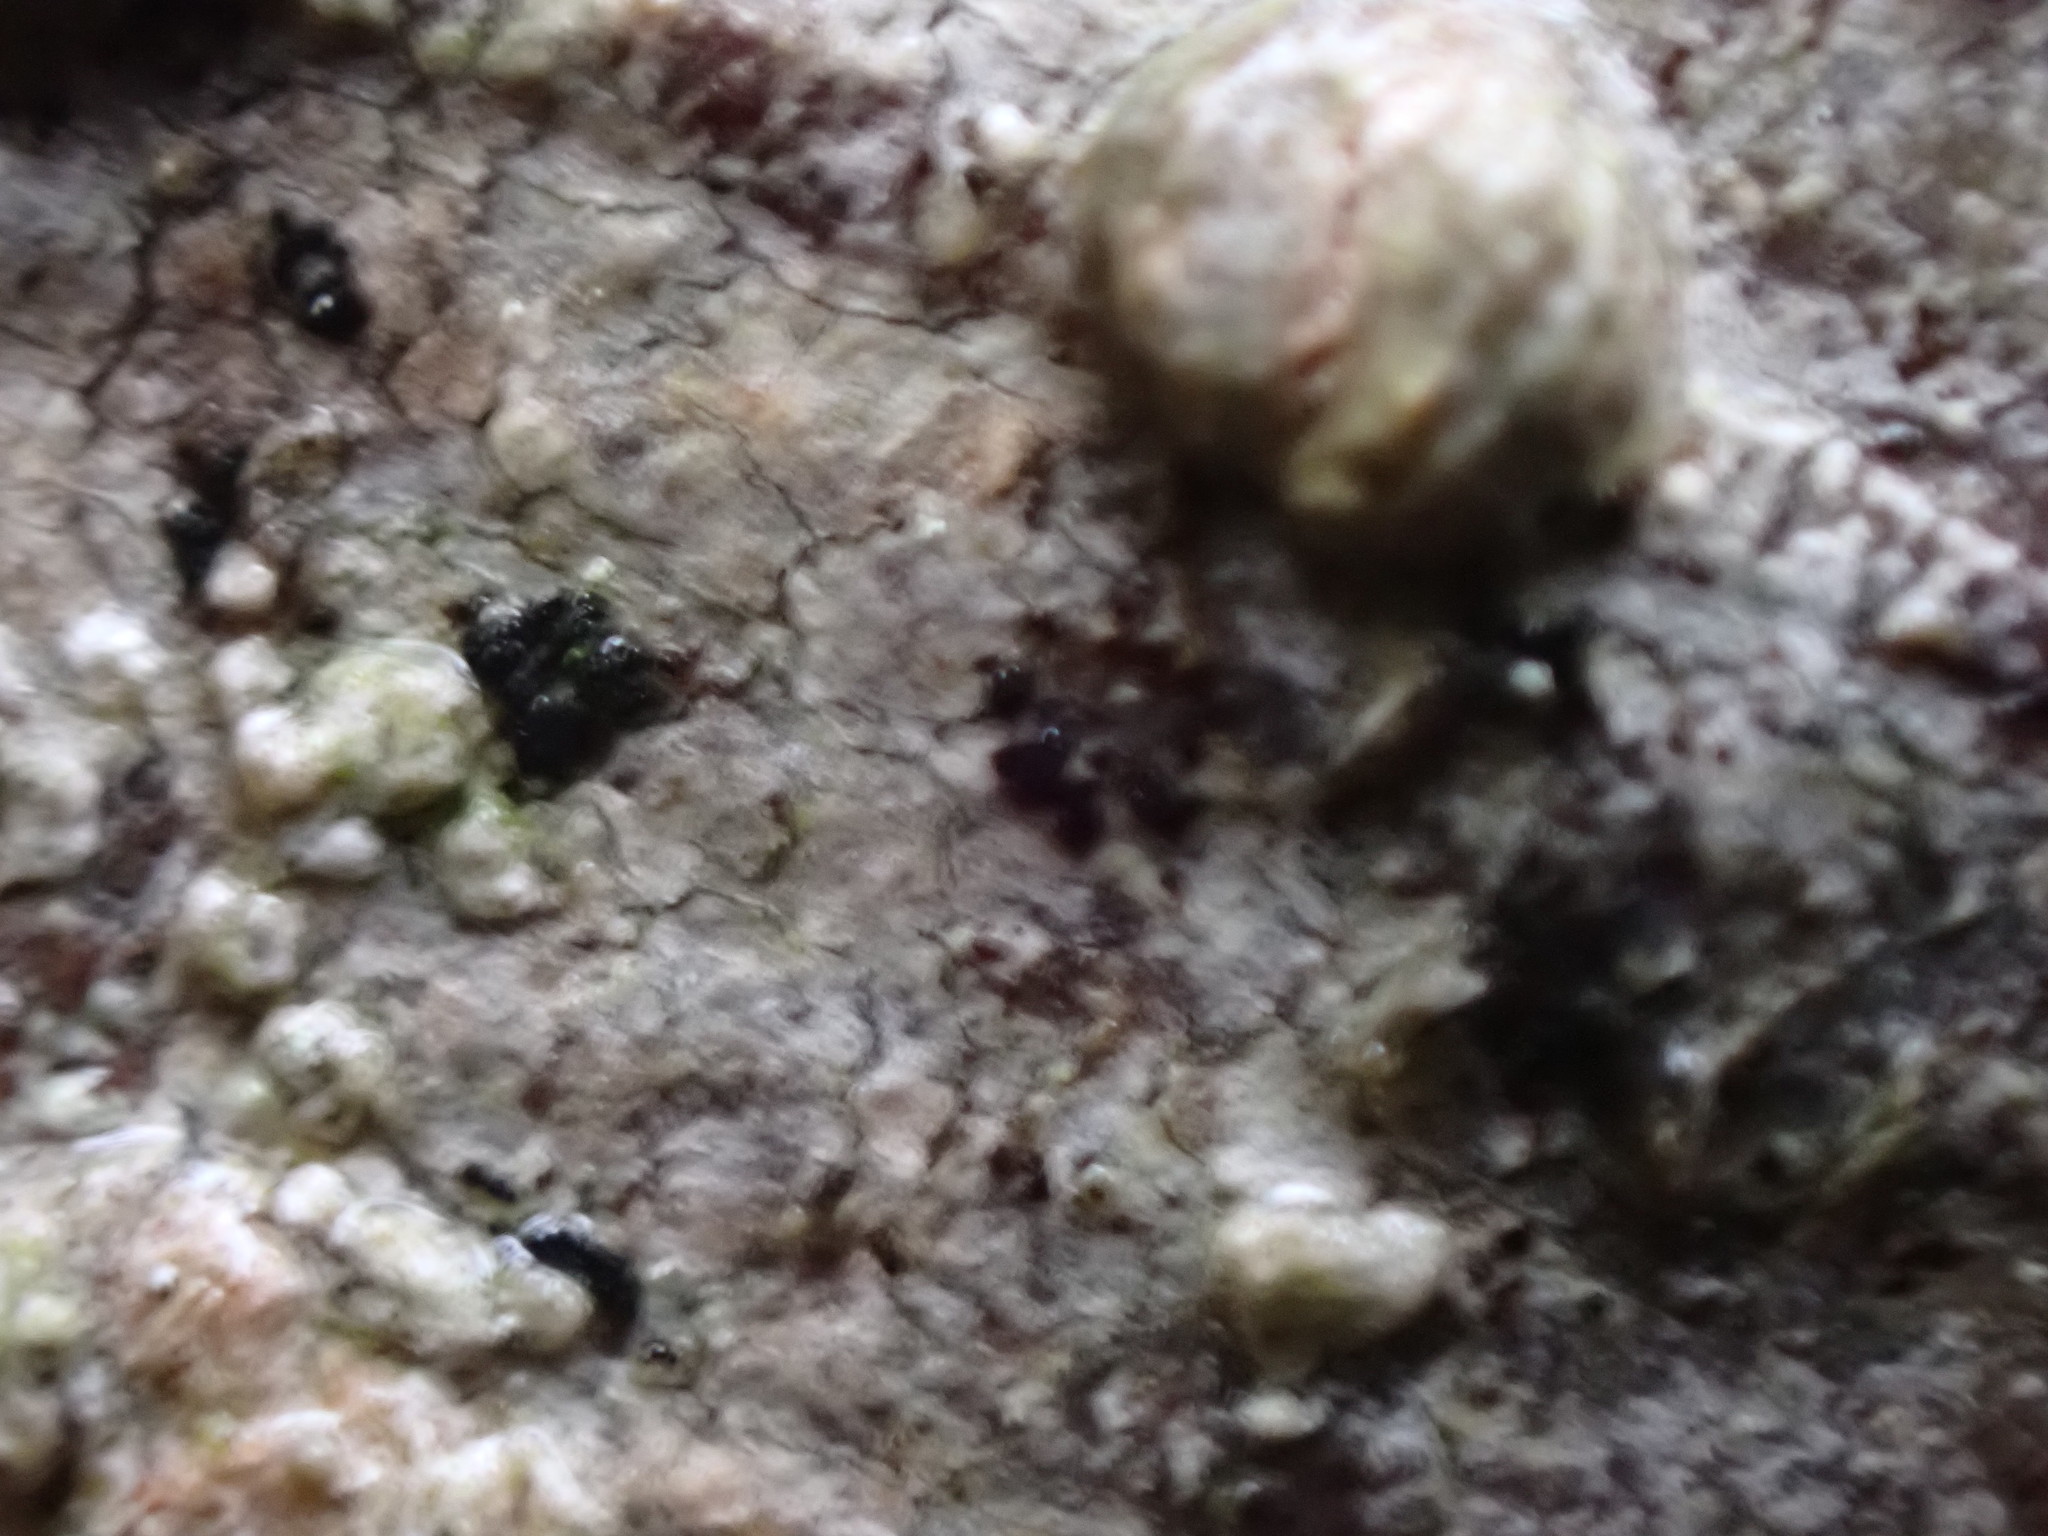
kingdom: Fungi
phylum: Ascomycota
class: Arthoniomycetes
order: Arthoniales
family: Arthoniaceae
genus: Arthonia
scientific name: Arthonia stellaris
